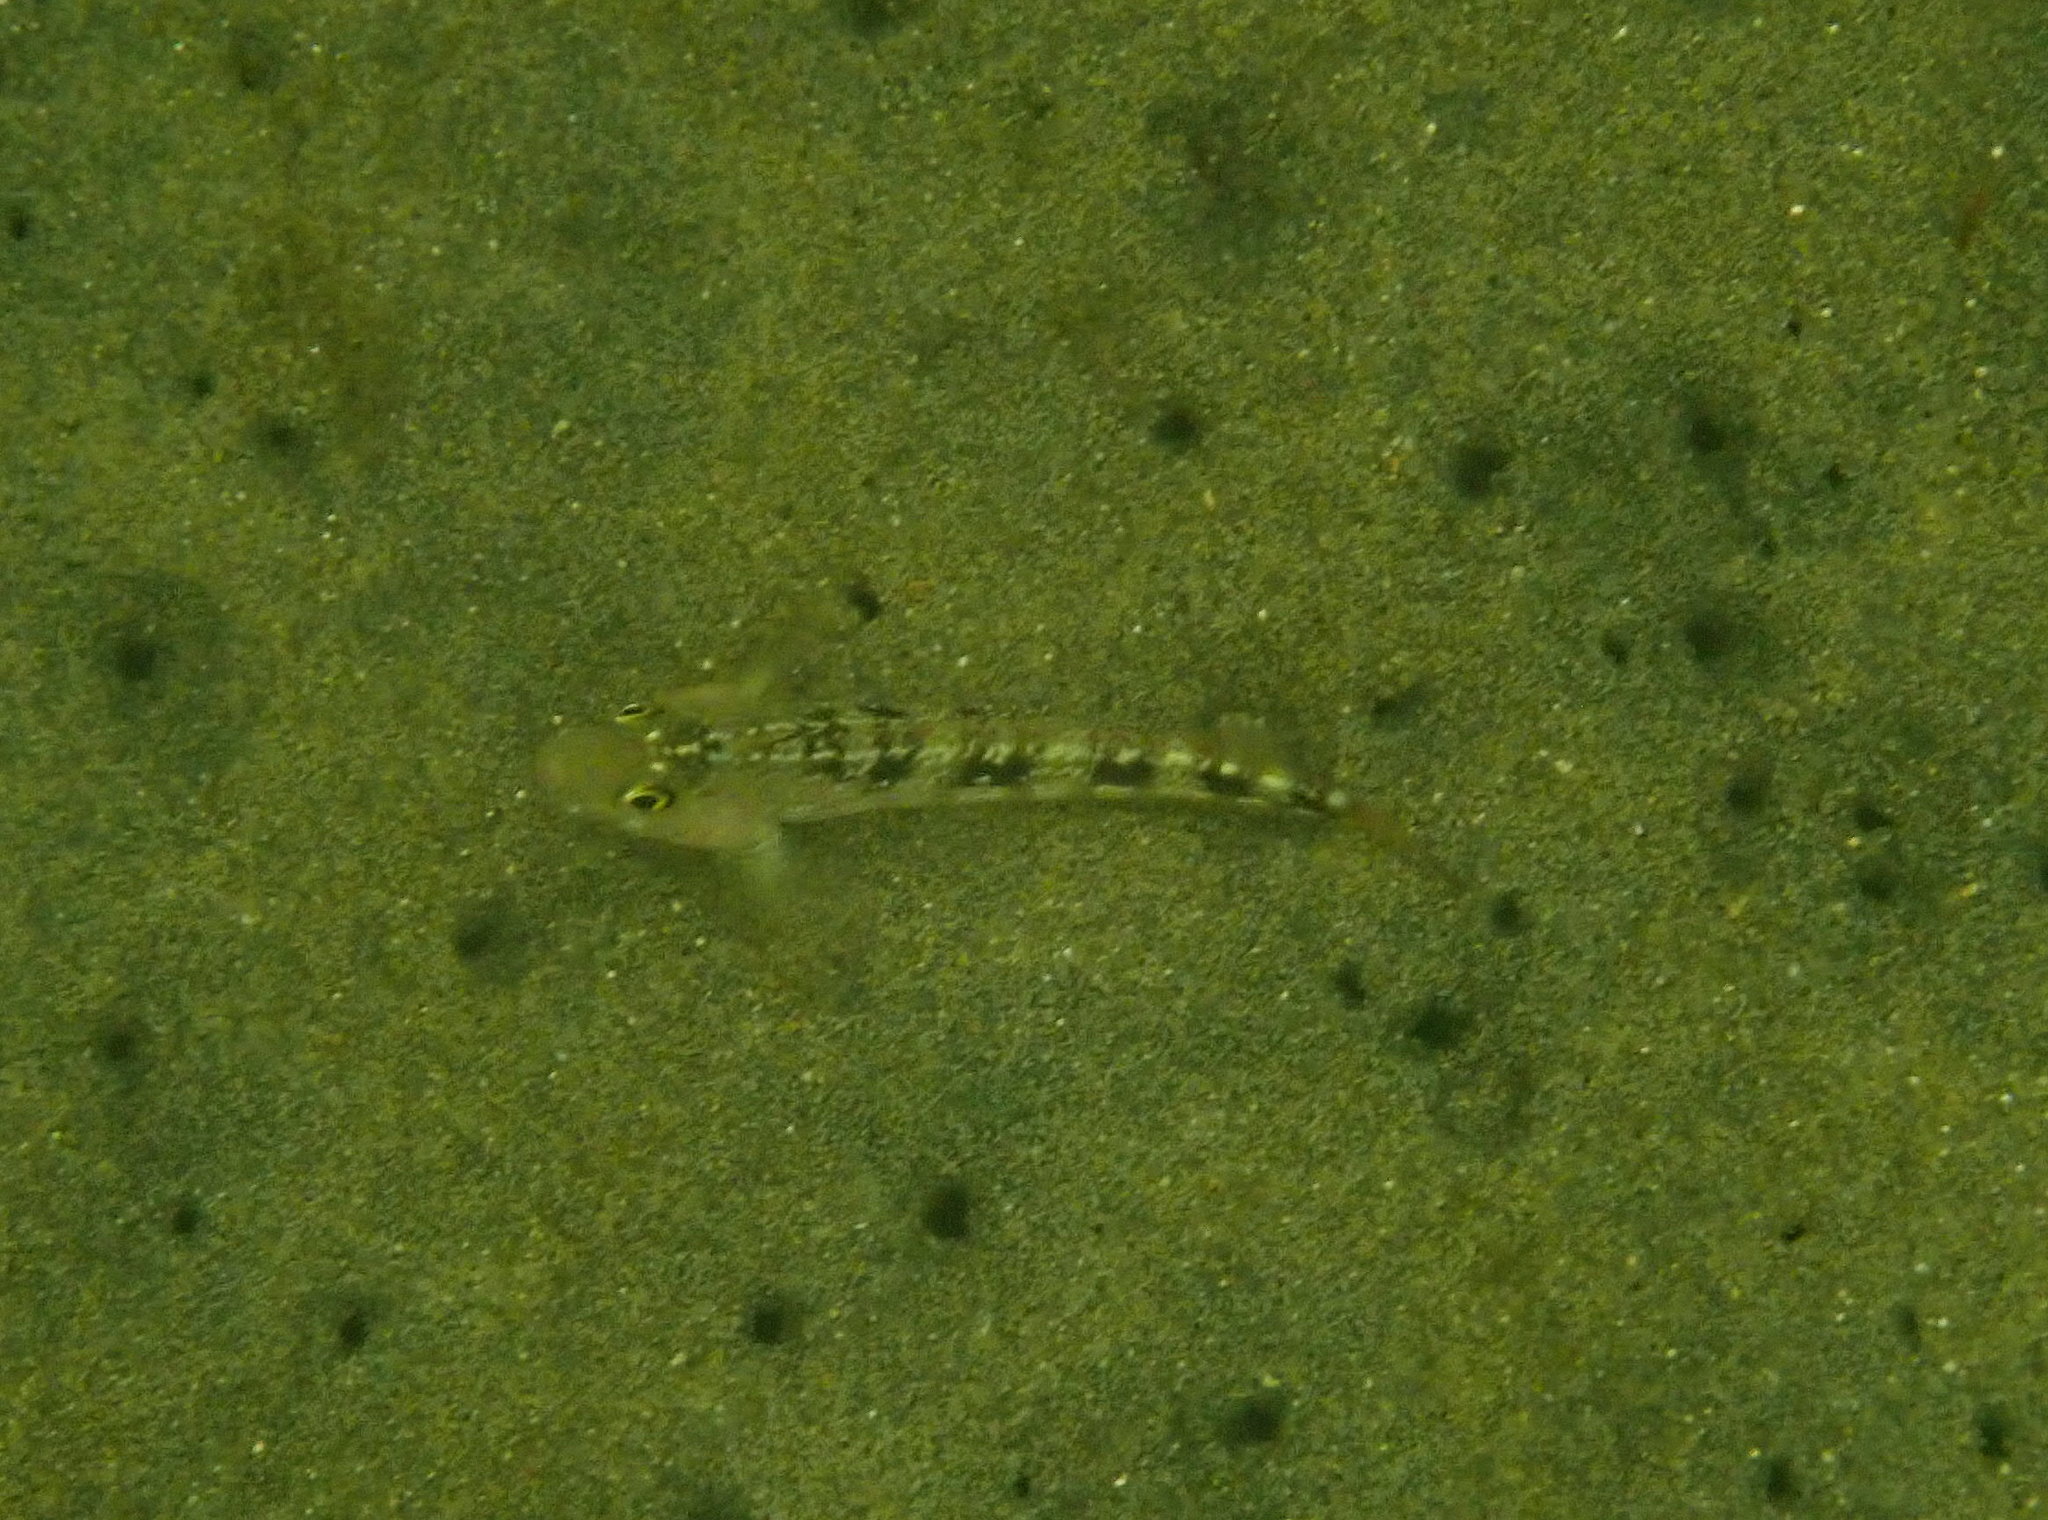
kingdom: Animalia
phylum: Chordata
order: Perciformes
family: Tripterygiidae
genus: Forsterygion
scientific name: Forsterygion varium
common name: Variable triplefin
